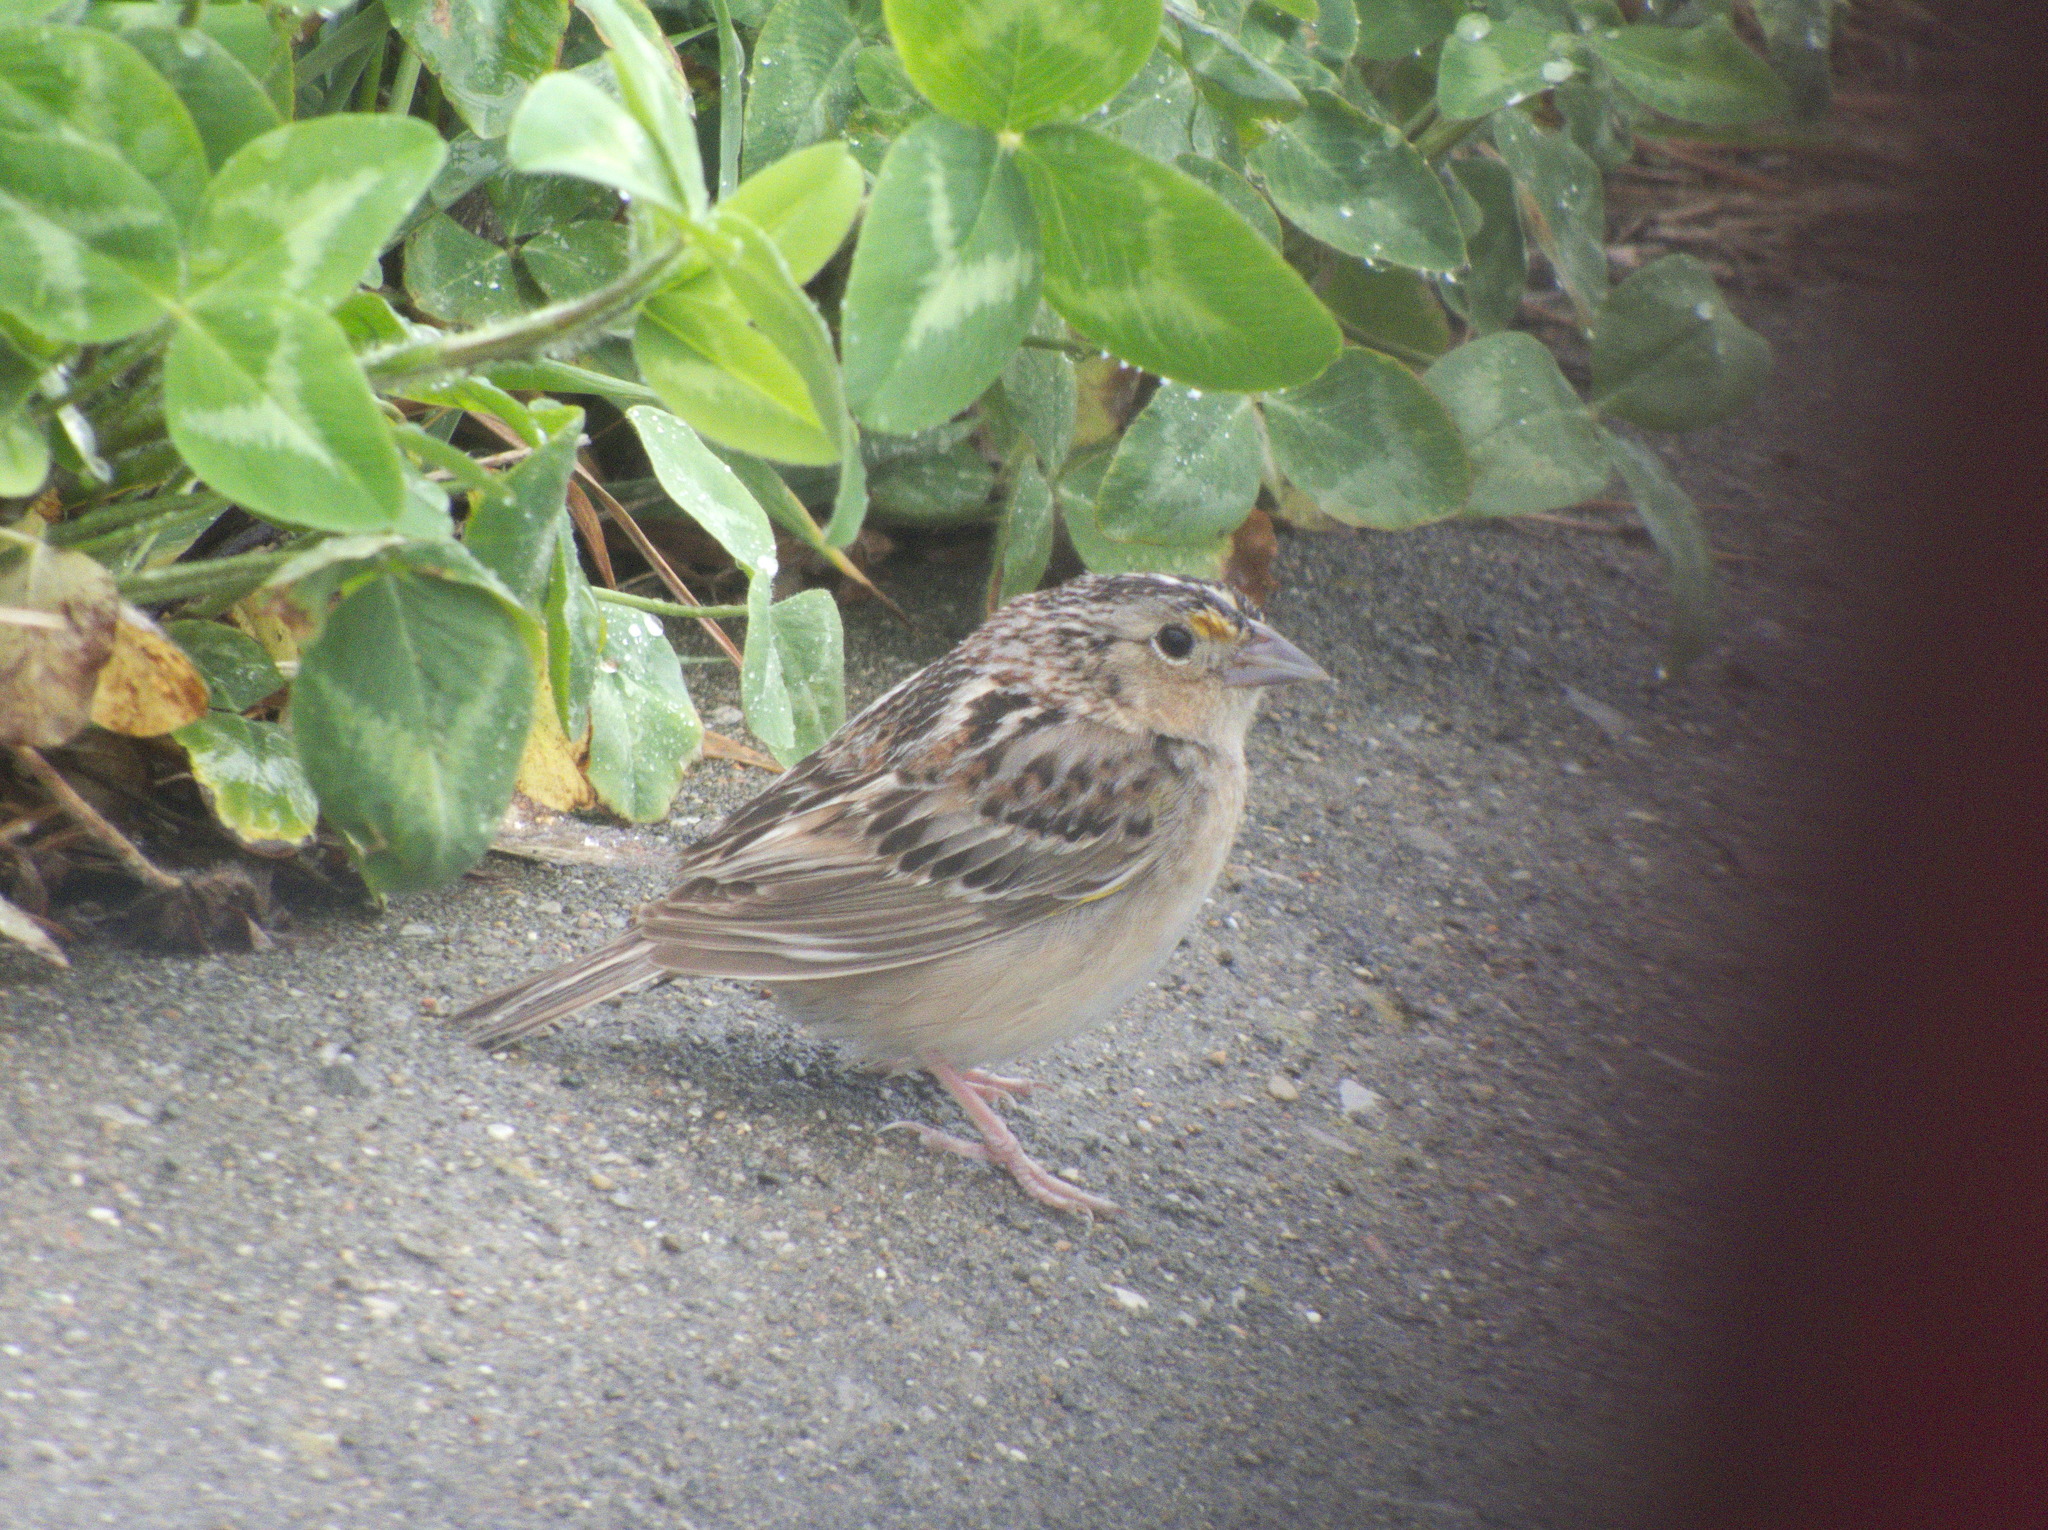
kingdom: Animalia
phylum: Chordata
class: Aves
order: Passeriformes
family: Passerellidae
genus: Ammodramus
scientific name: Ammodramus savannarum
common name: Grasshopper sparrow
